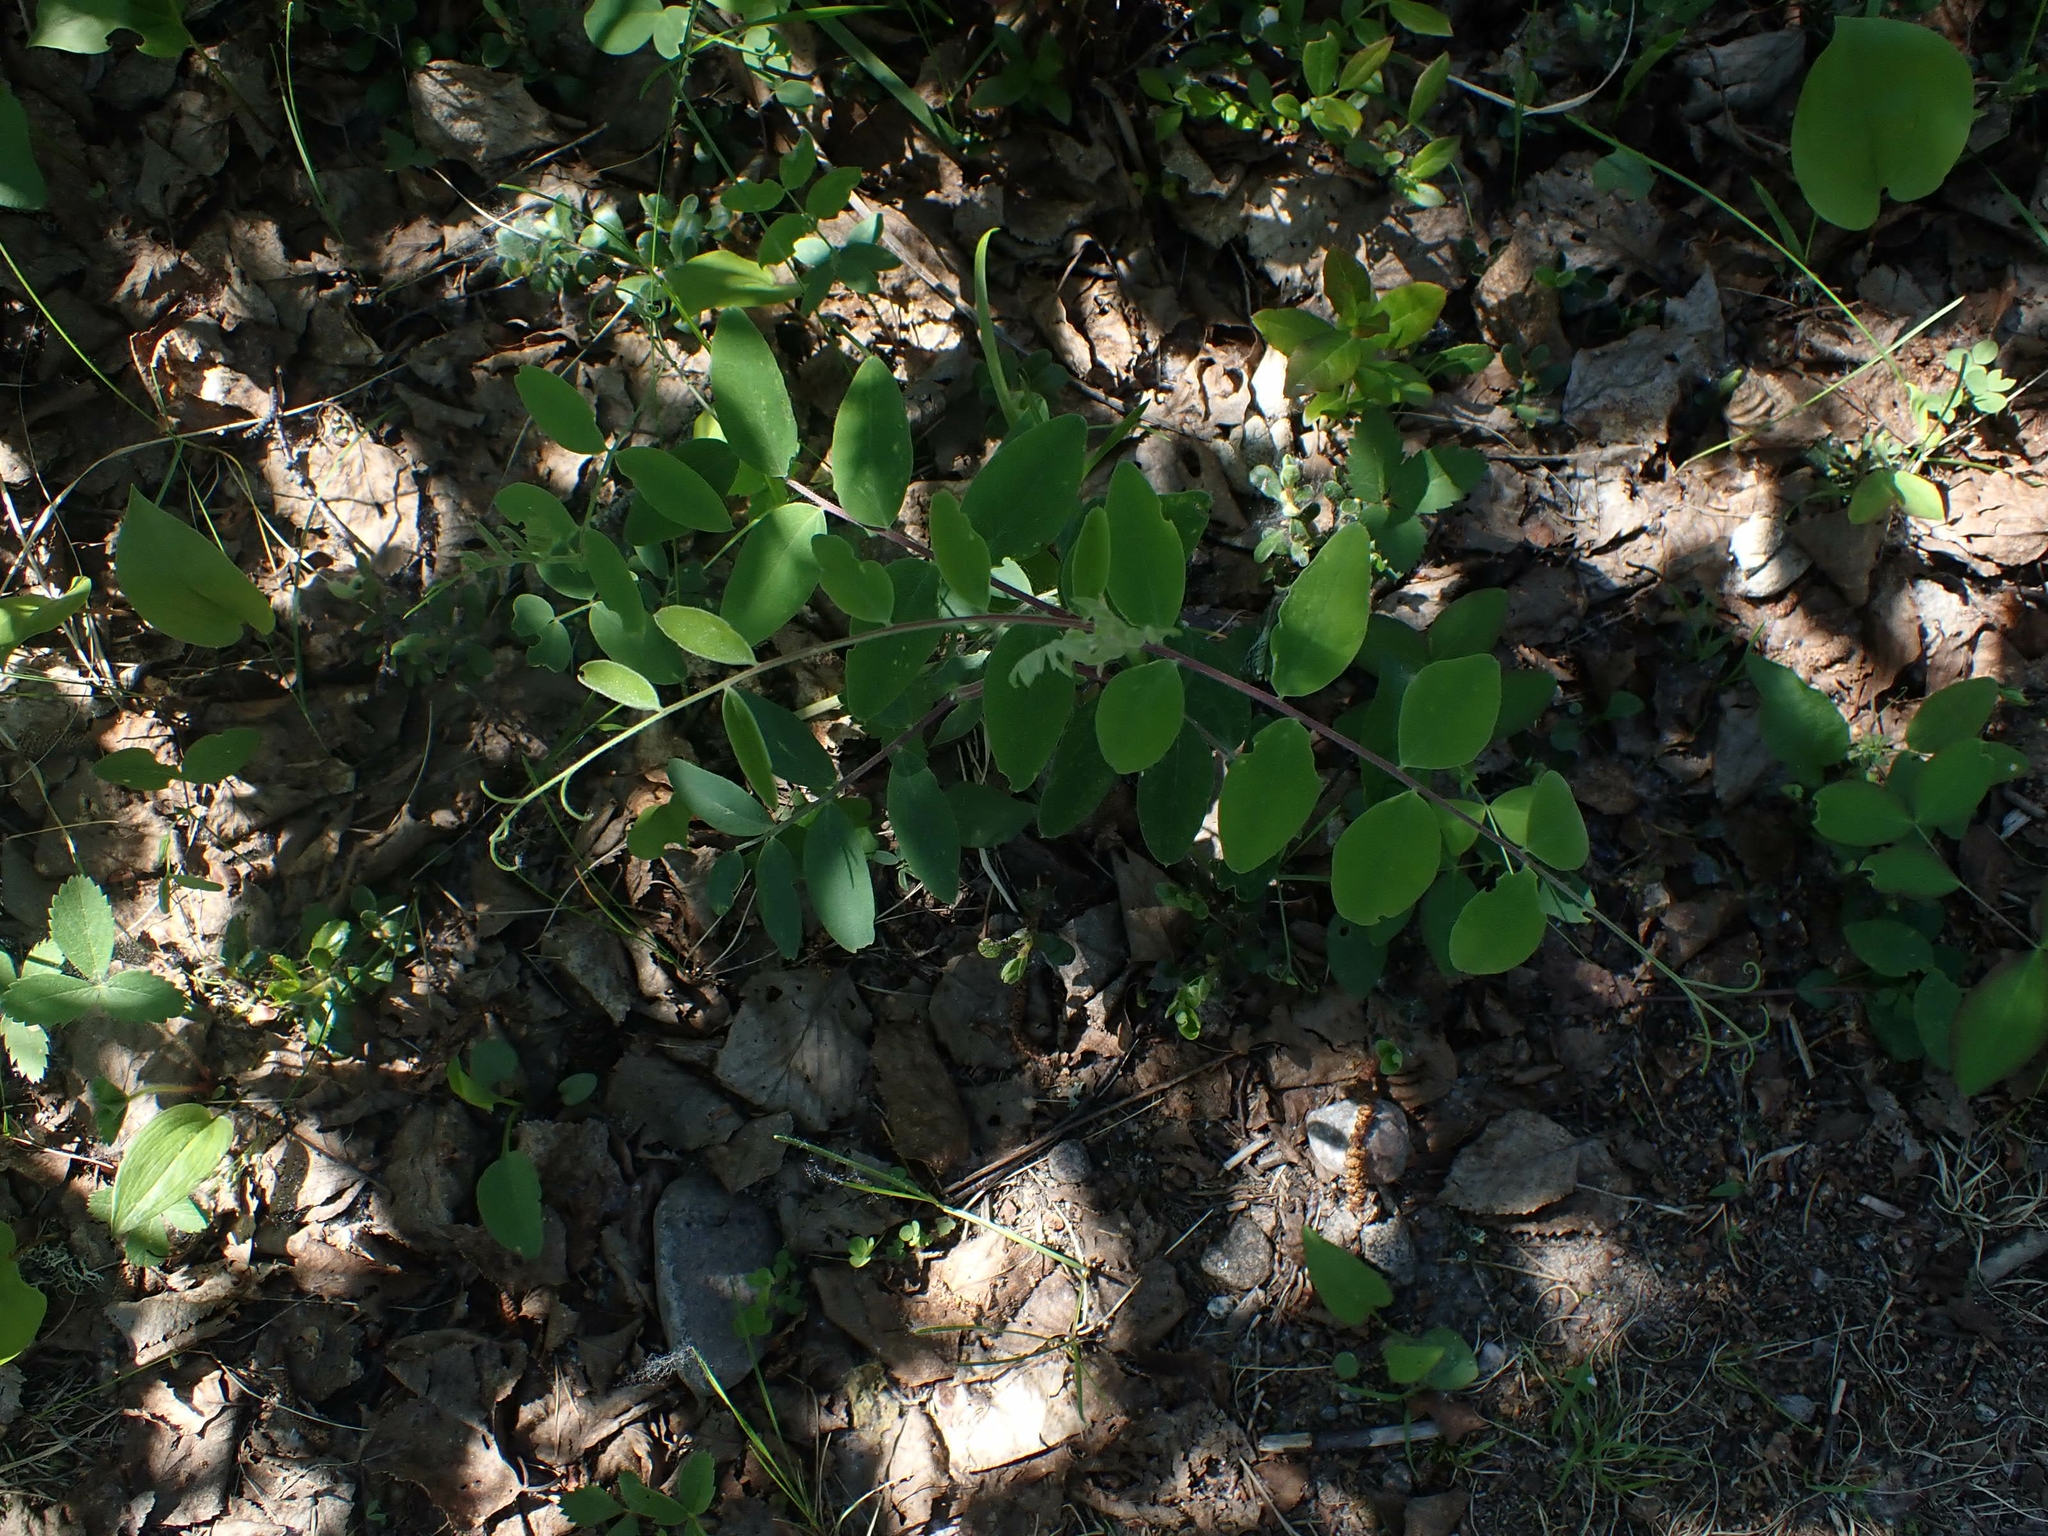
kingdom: Plantae
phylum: Tracheophyta
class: Magnoliopsida
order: Fabales
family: Fabaceae
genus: Lathyrus
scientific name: Lathyrus venosus
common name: Forest-pea
